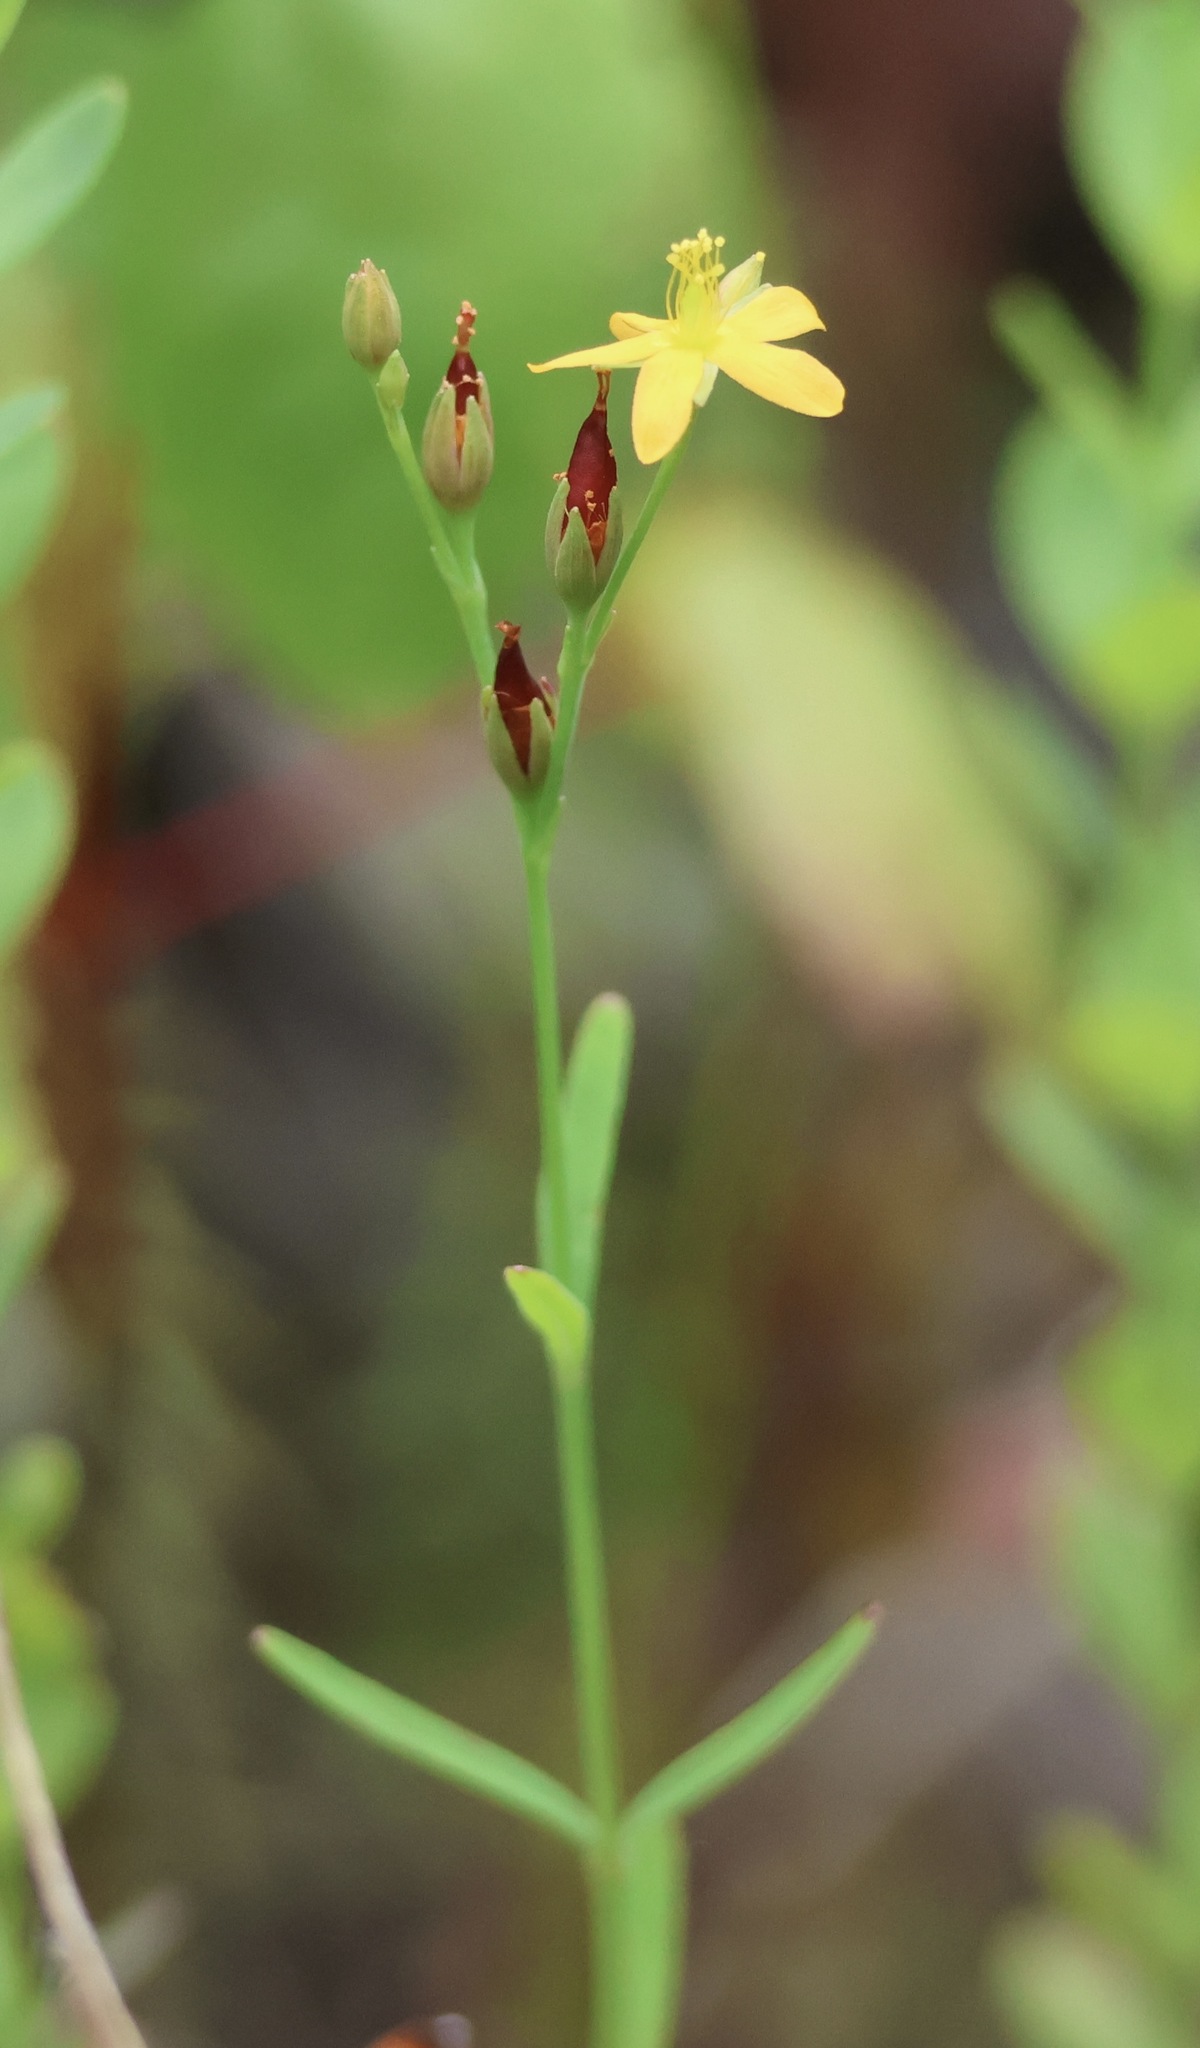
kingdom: Plantae
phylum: Tracheophyta
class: Magnoliopsida
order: Malpighiales
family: Hypericaceae
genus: Hypericum
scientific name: Hypericum canadense
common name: Irish st. john's-wort
